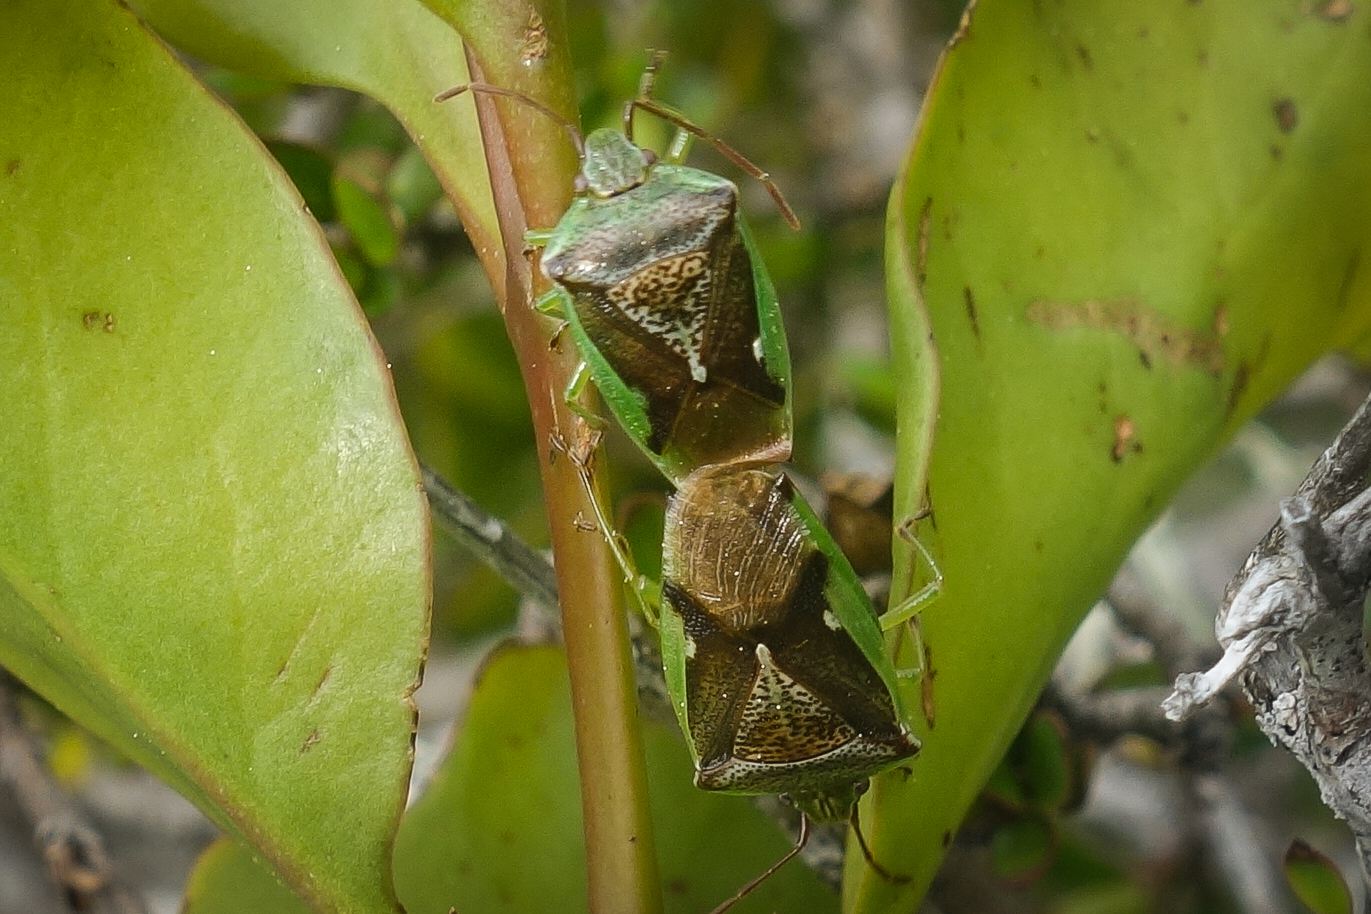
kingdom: Animalia
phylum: Arthropoda
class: Insecta
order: Hemiptera
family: Acanthosomatidae
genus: Oncacontias
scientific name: Oncacontias vittatus
